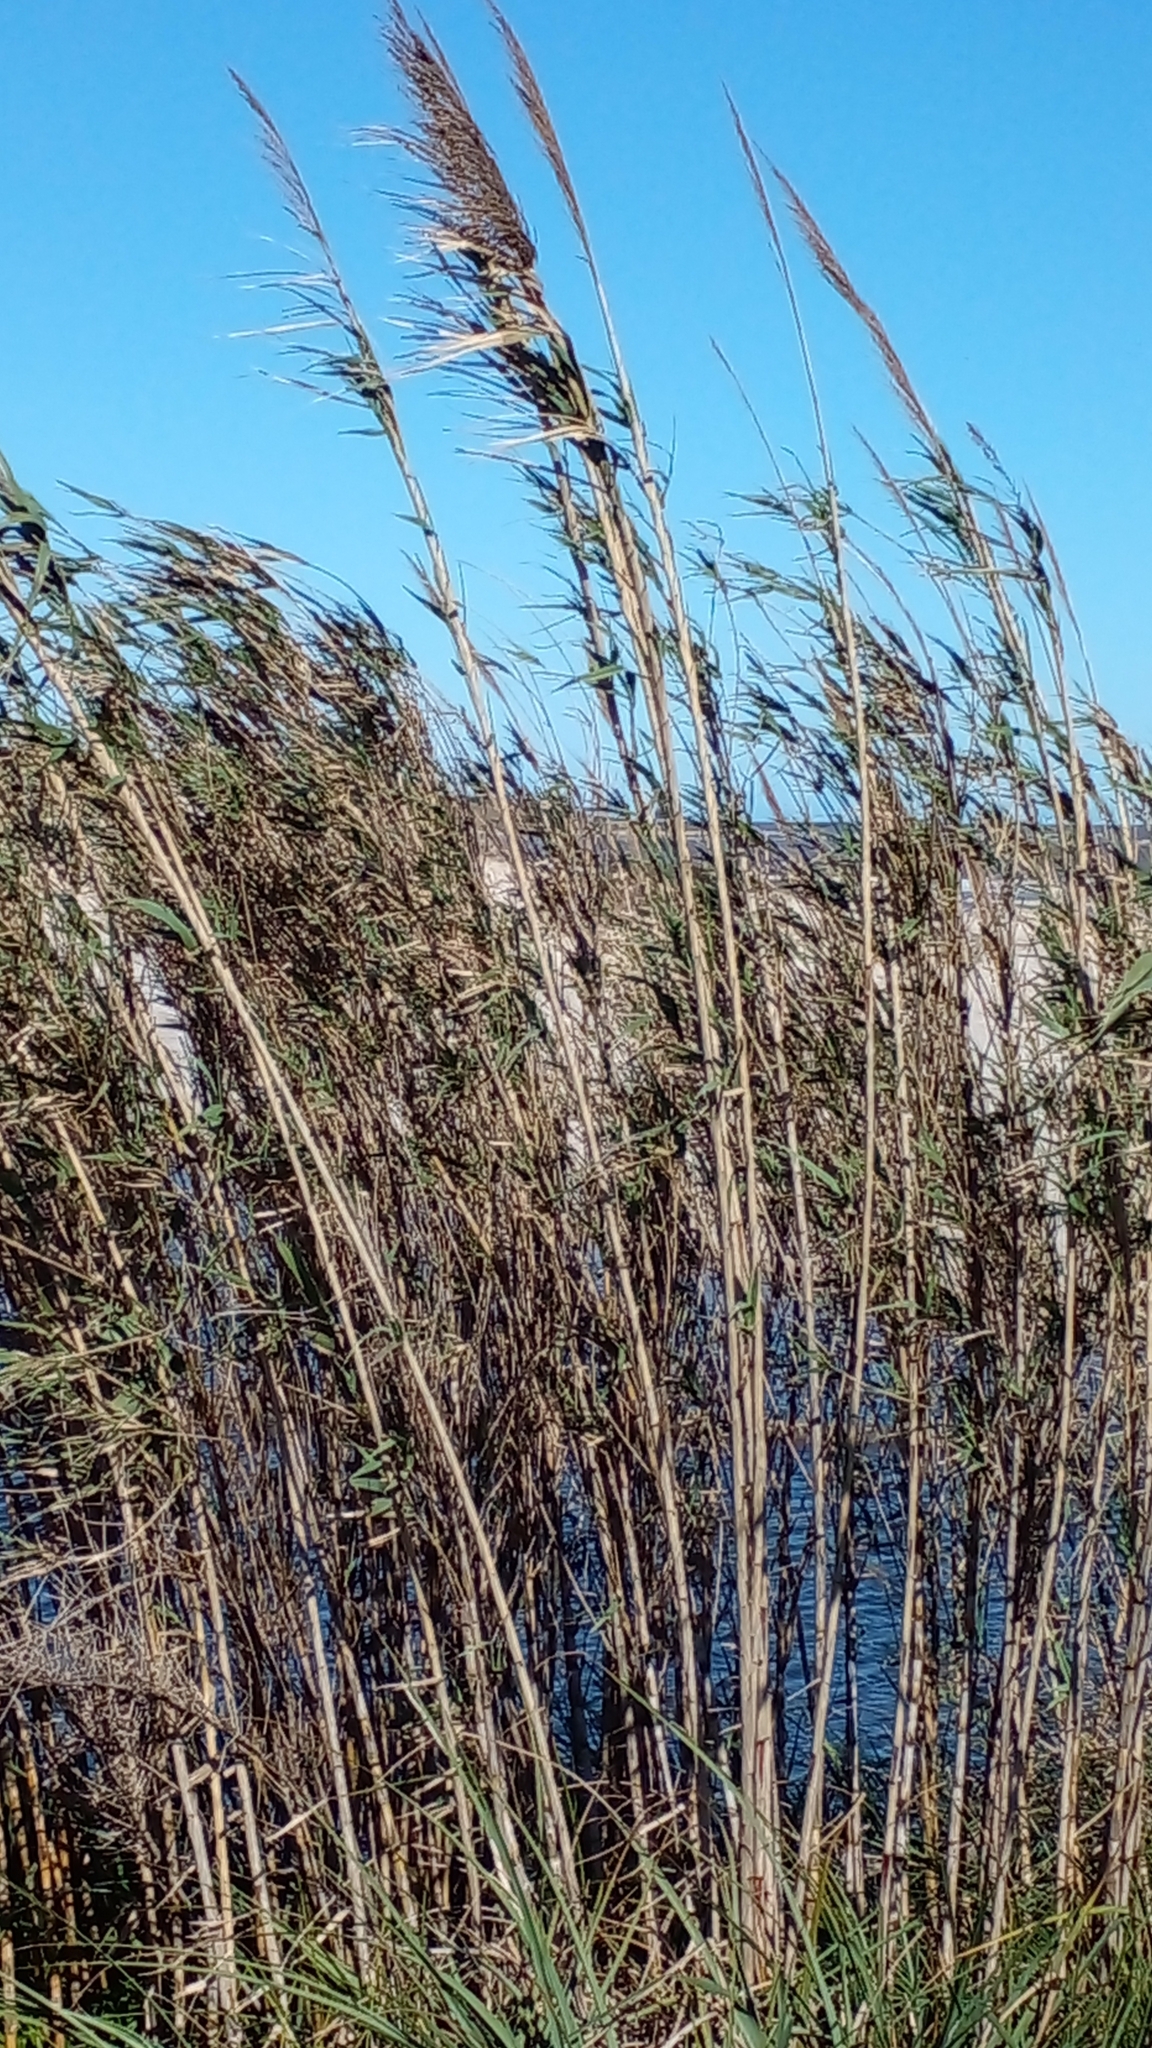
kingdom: Plantae
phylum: Tracheophyta
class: Liliopsida
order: Poales
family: Poaceae
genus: Arundo
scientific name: Arundo donax
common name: Giant reed
